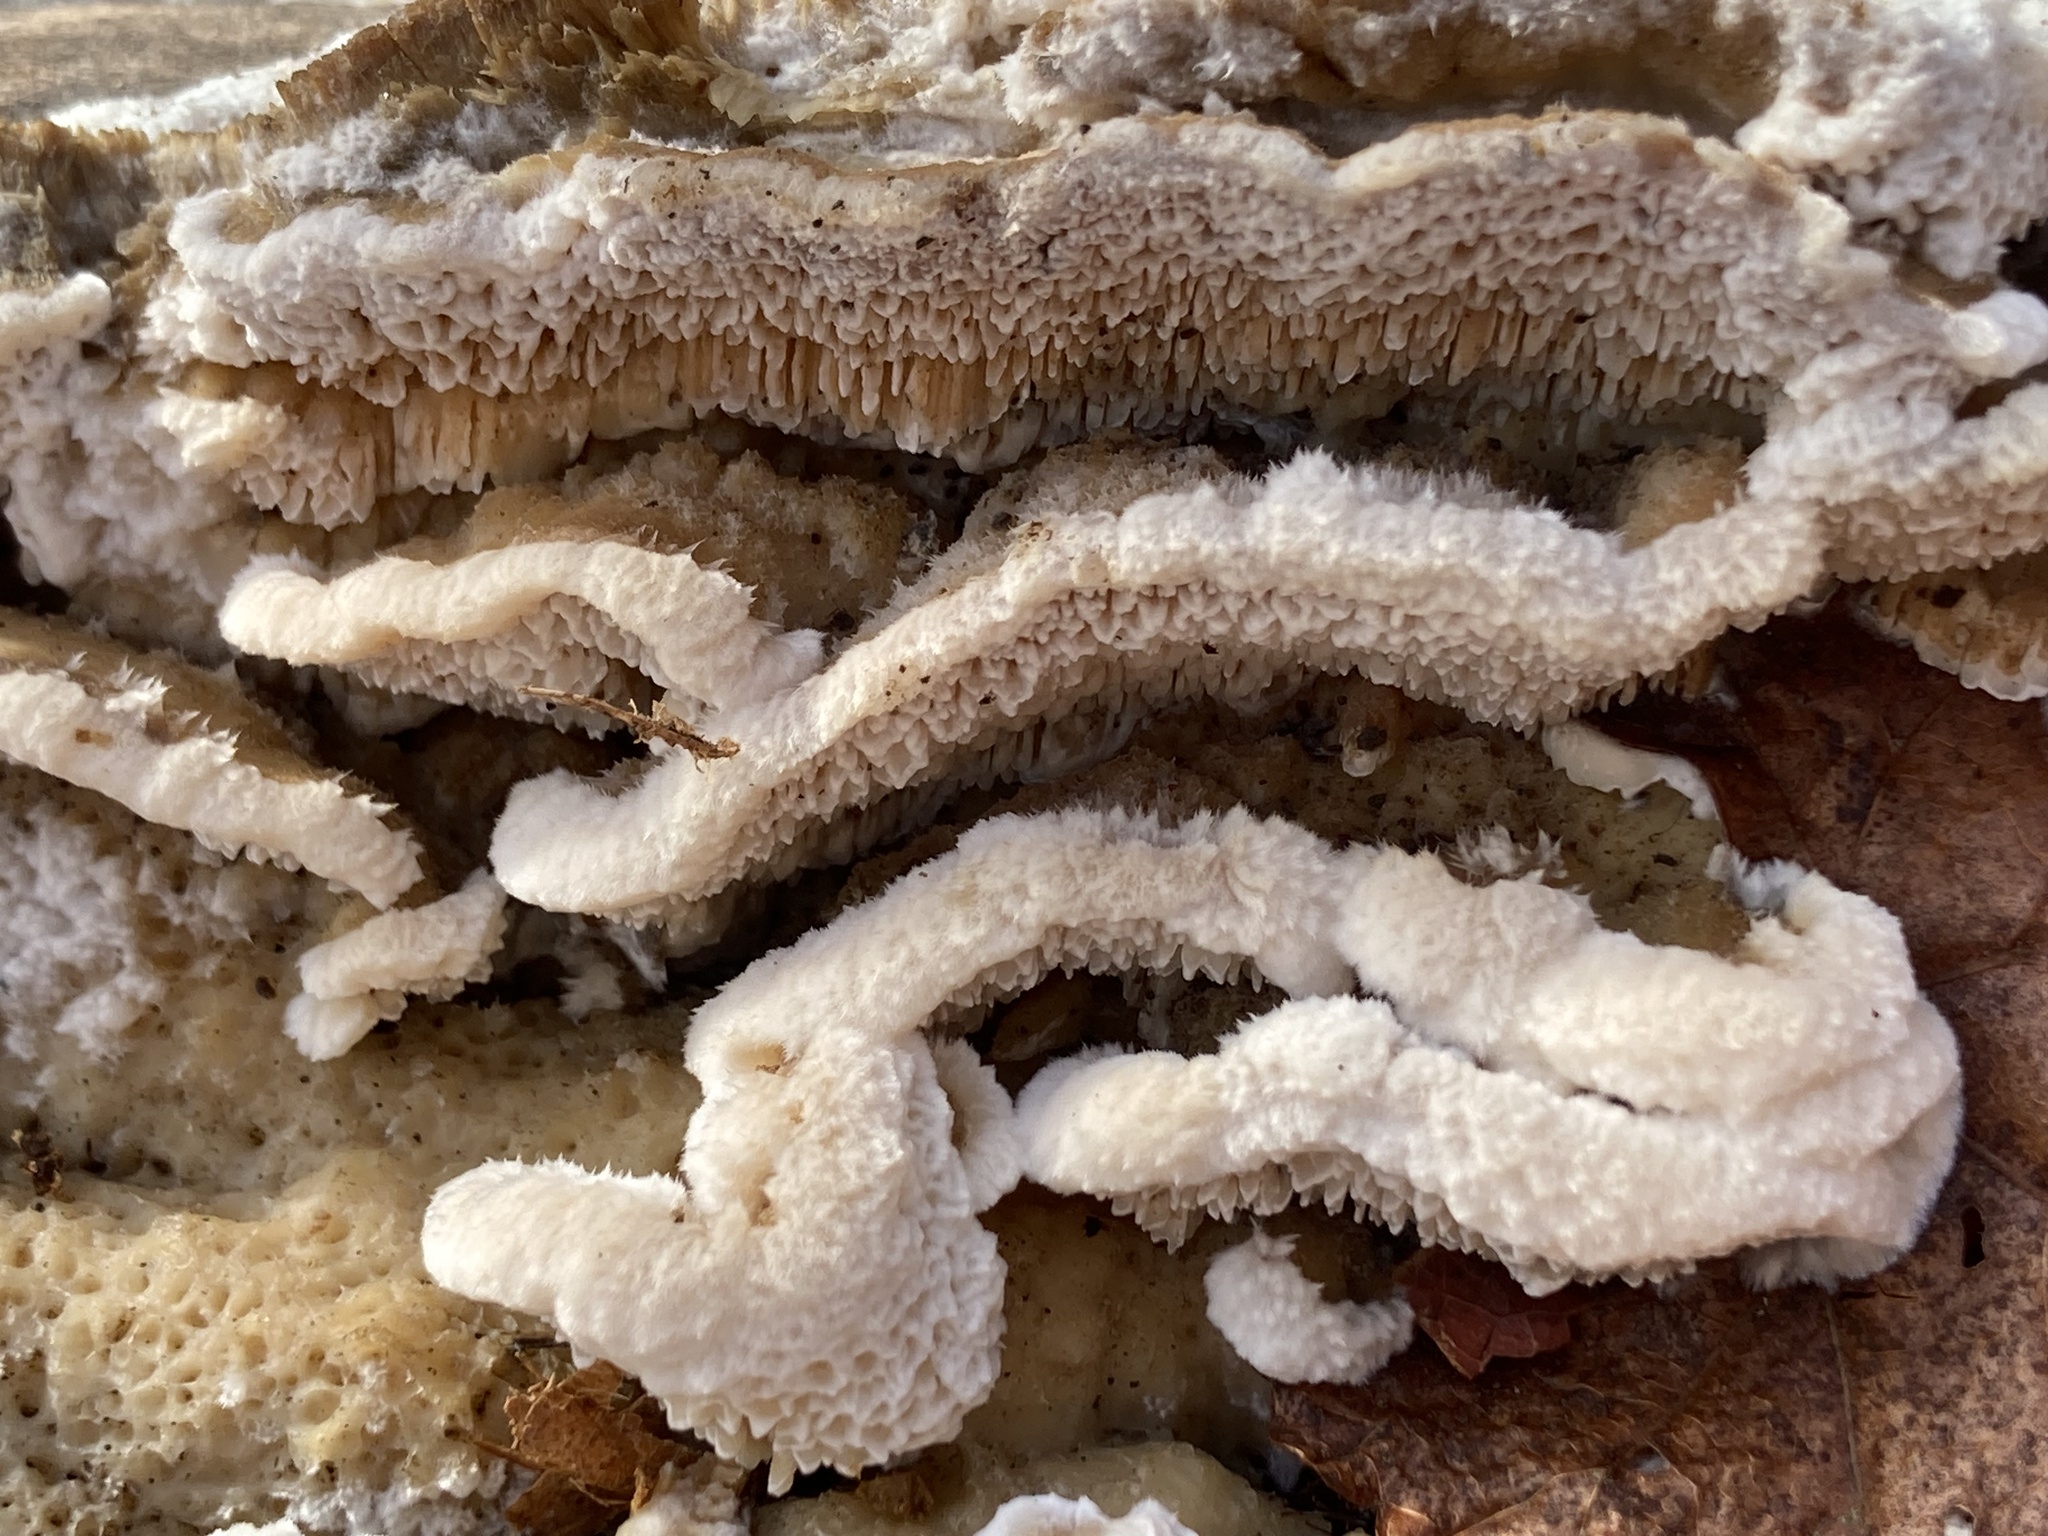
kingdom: Fungi
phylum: Basidiomycota
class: Agaricomycetes
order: Polyporales
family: Irpicaceae
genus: Trametopsis
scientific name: Trametopsis cervina
